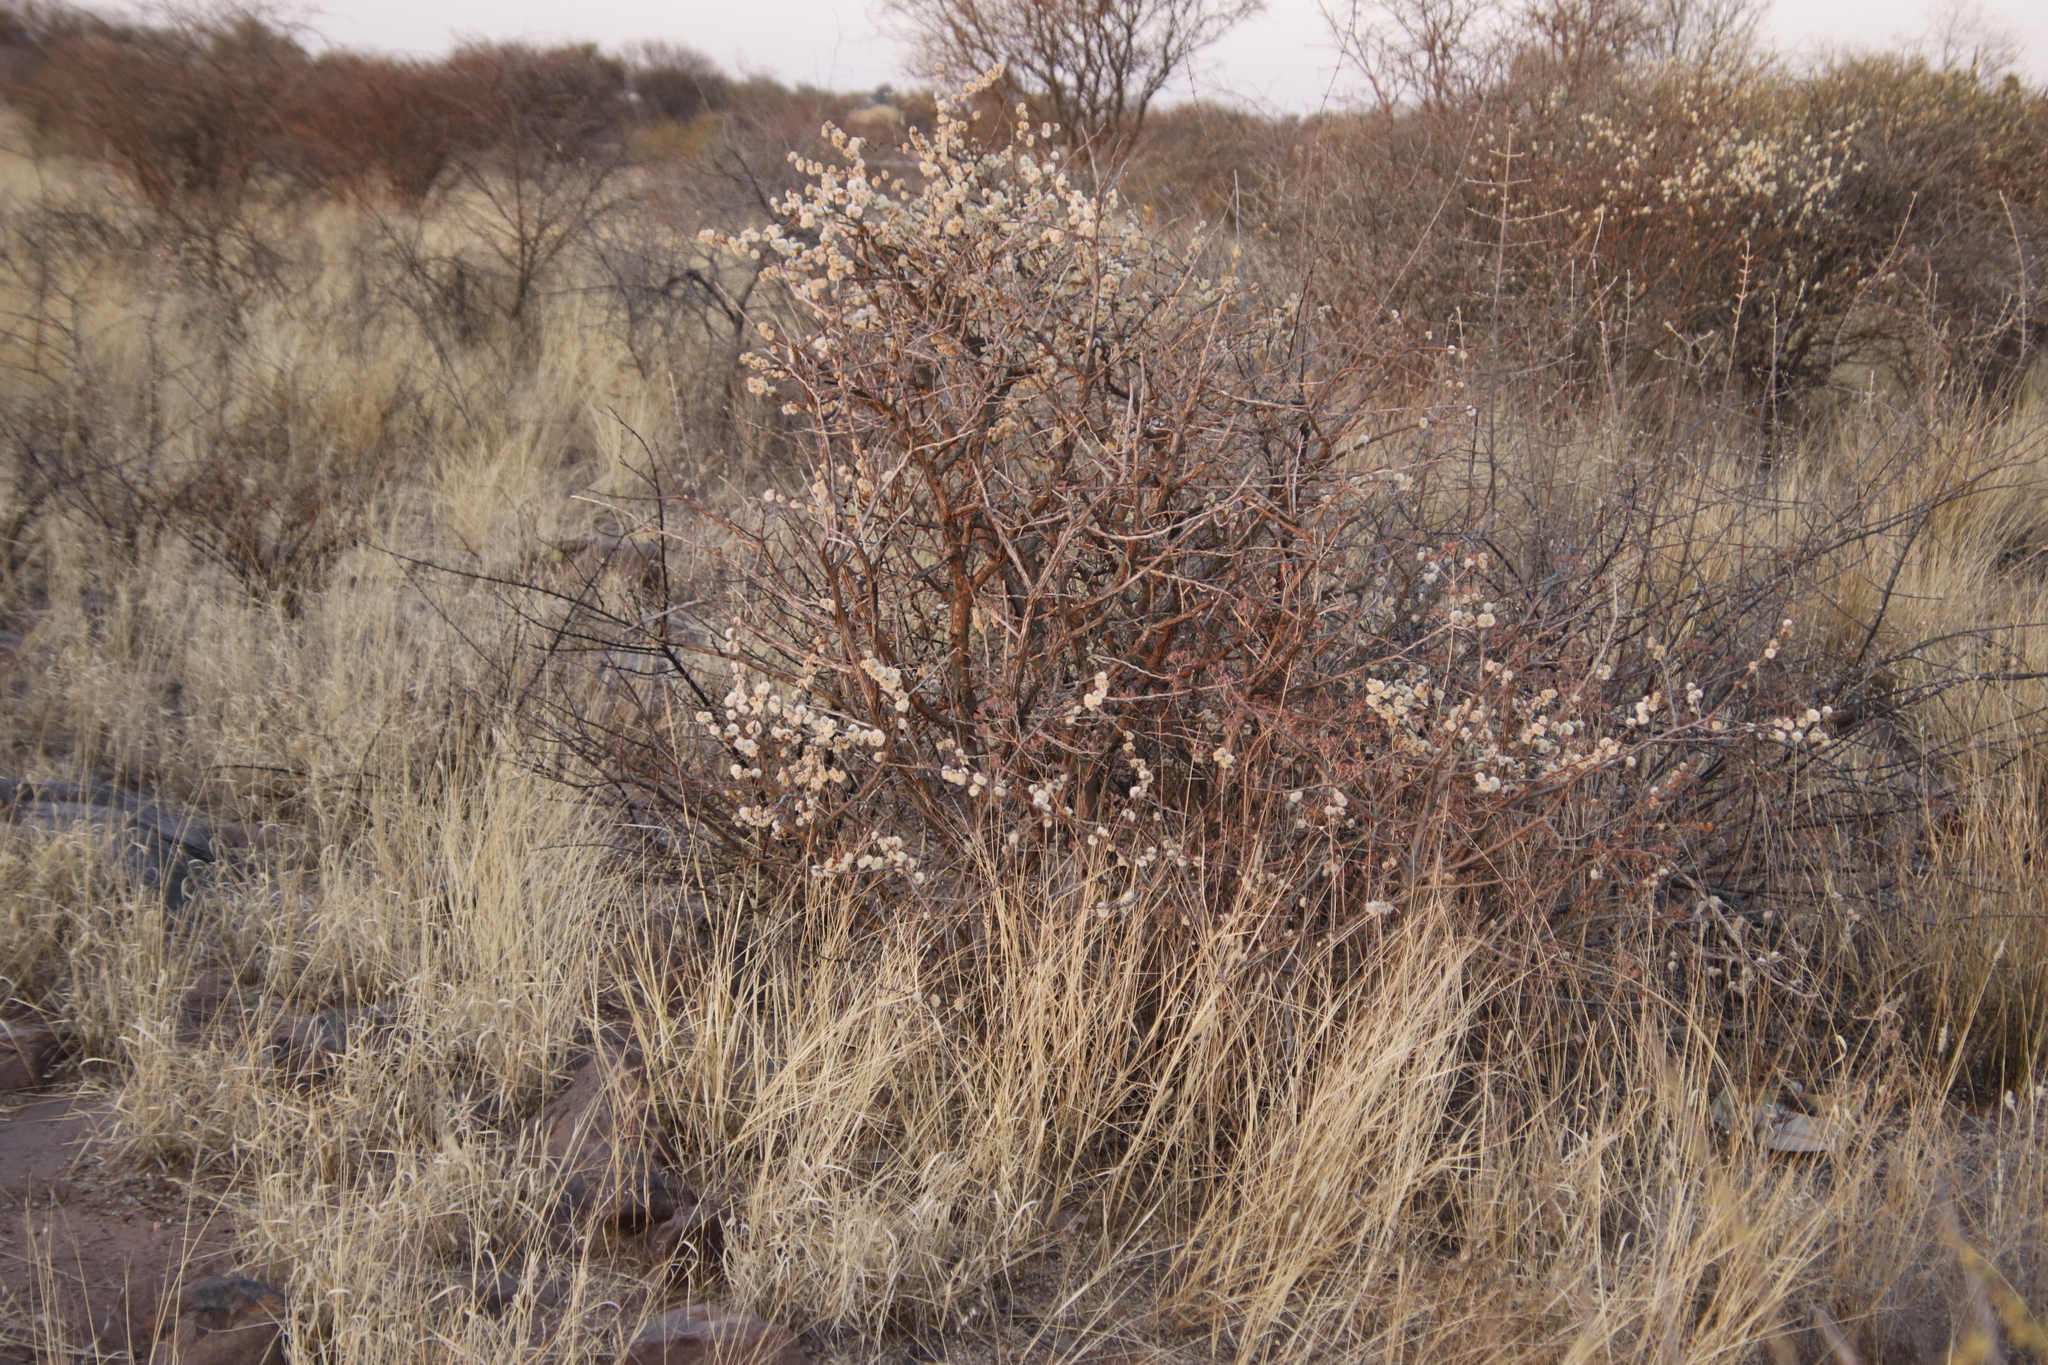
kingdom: Plantae
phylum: Tracheophyta
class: Magnoliopsida
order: Fabales
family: Fabaceae
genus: Senegalia
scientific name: Senegalia mellifera
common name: Hookthorn
